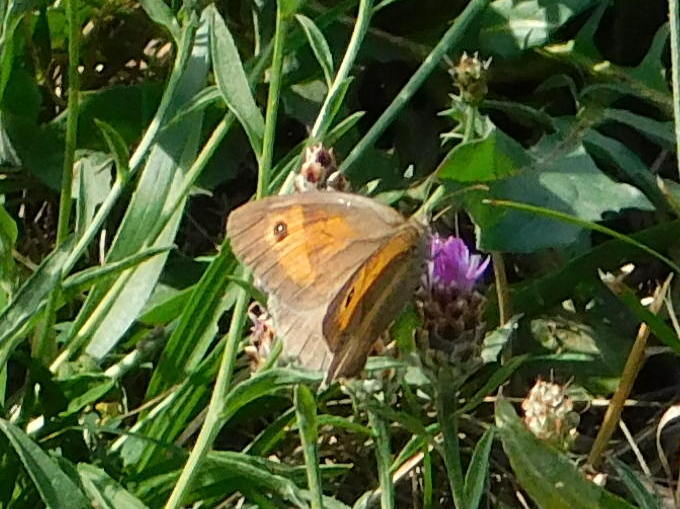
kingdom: Animalia
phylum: Arthropoda
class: Insecta
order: Lepidoptera
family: Nymphalidae
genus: Maniola
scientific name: Maniola jurtina
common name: Meadow brown
